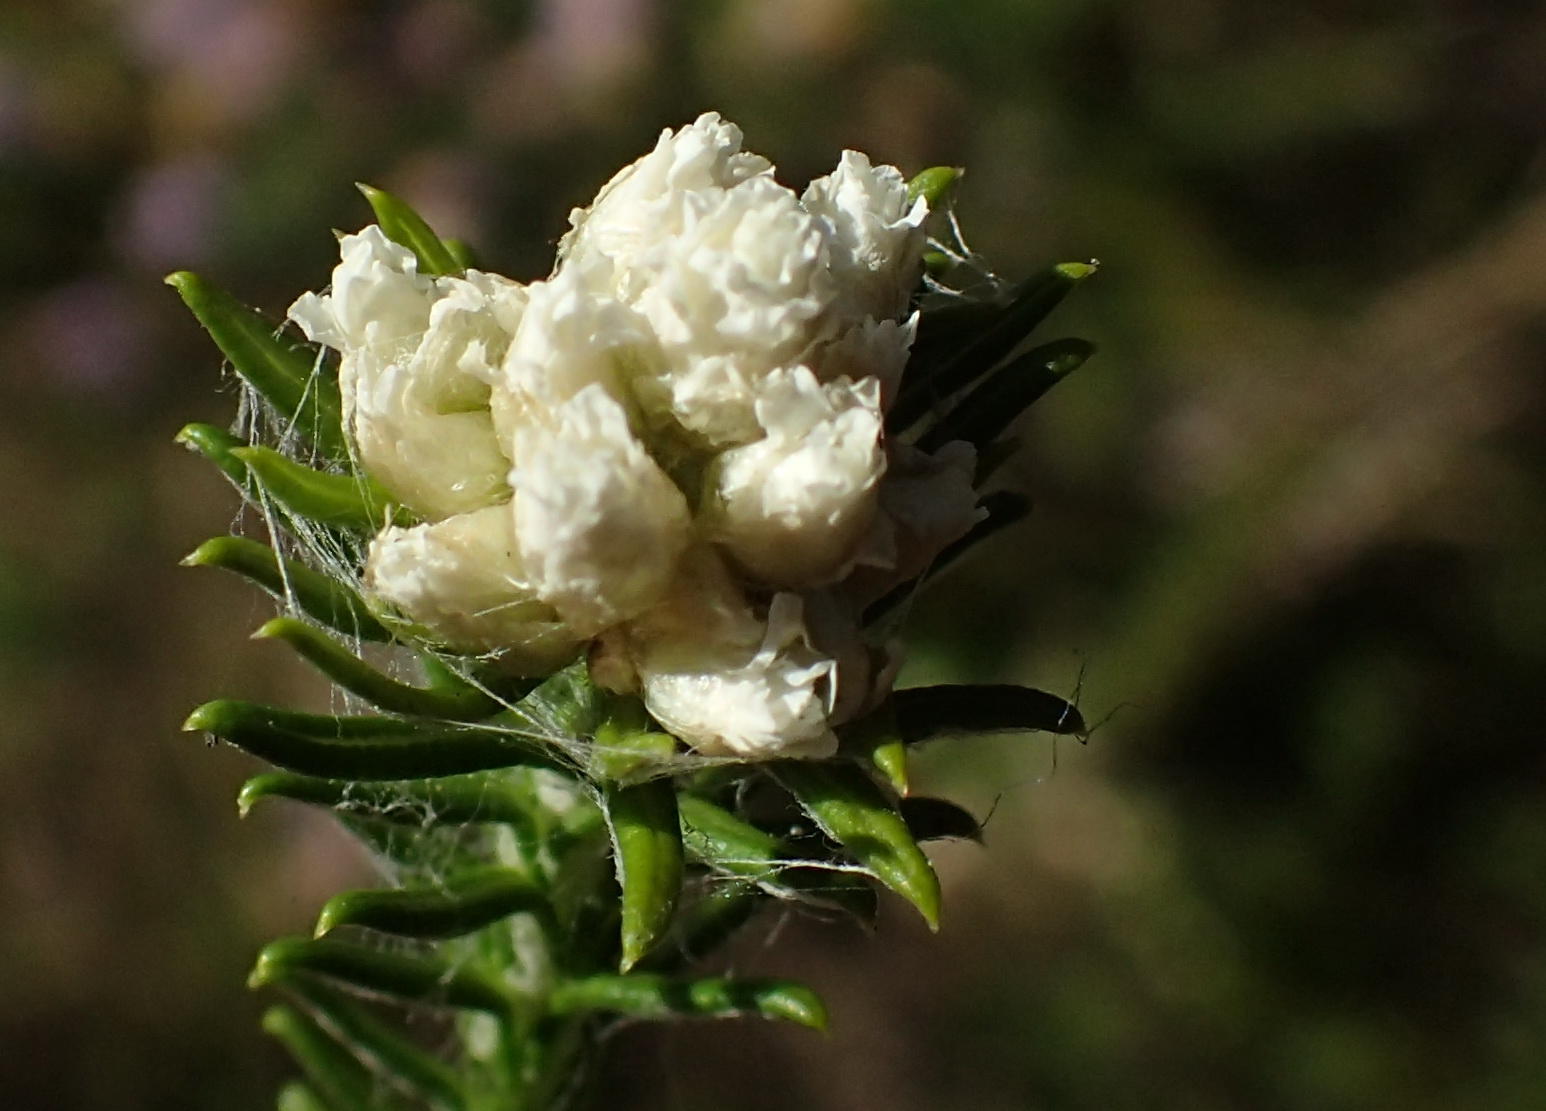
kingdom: Plantae
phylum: Tracheophyta
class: Magnoliopsida
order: Asterales
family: Asteraceae
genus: Helichrysum
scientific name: Helichrysum teretifolium
